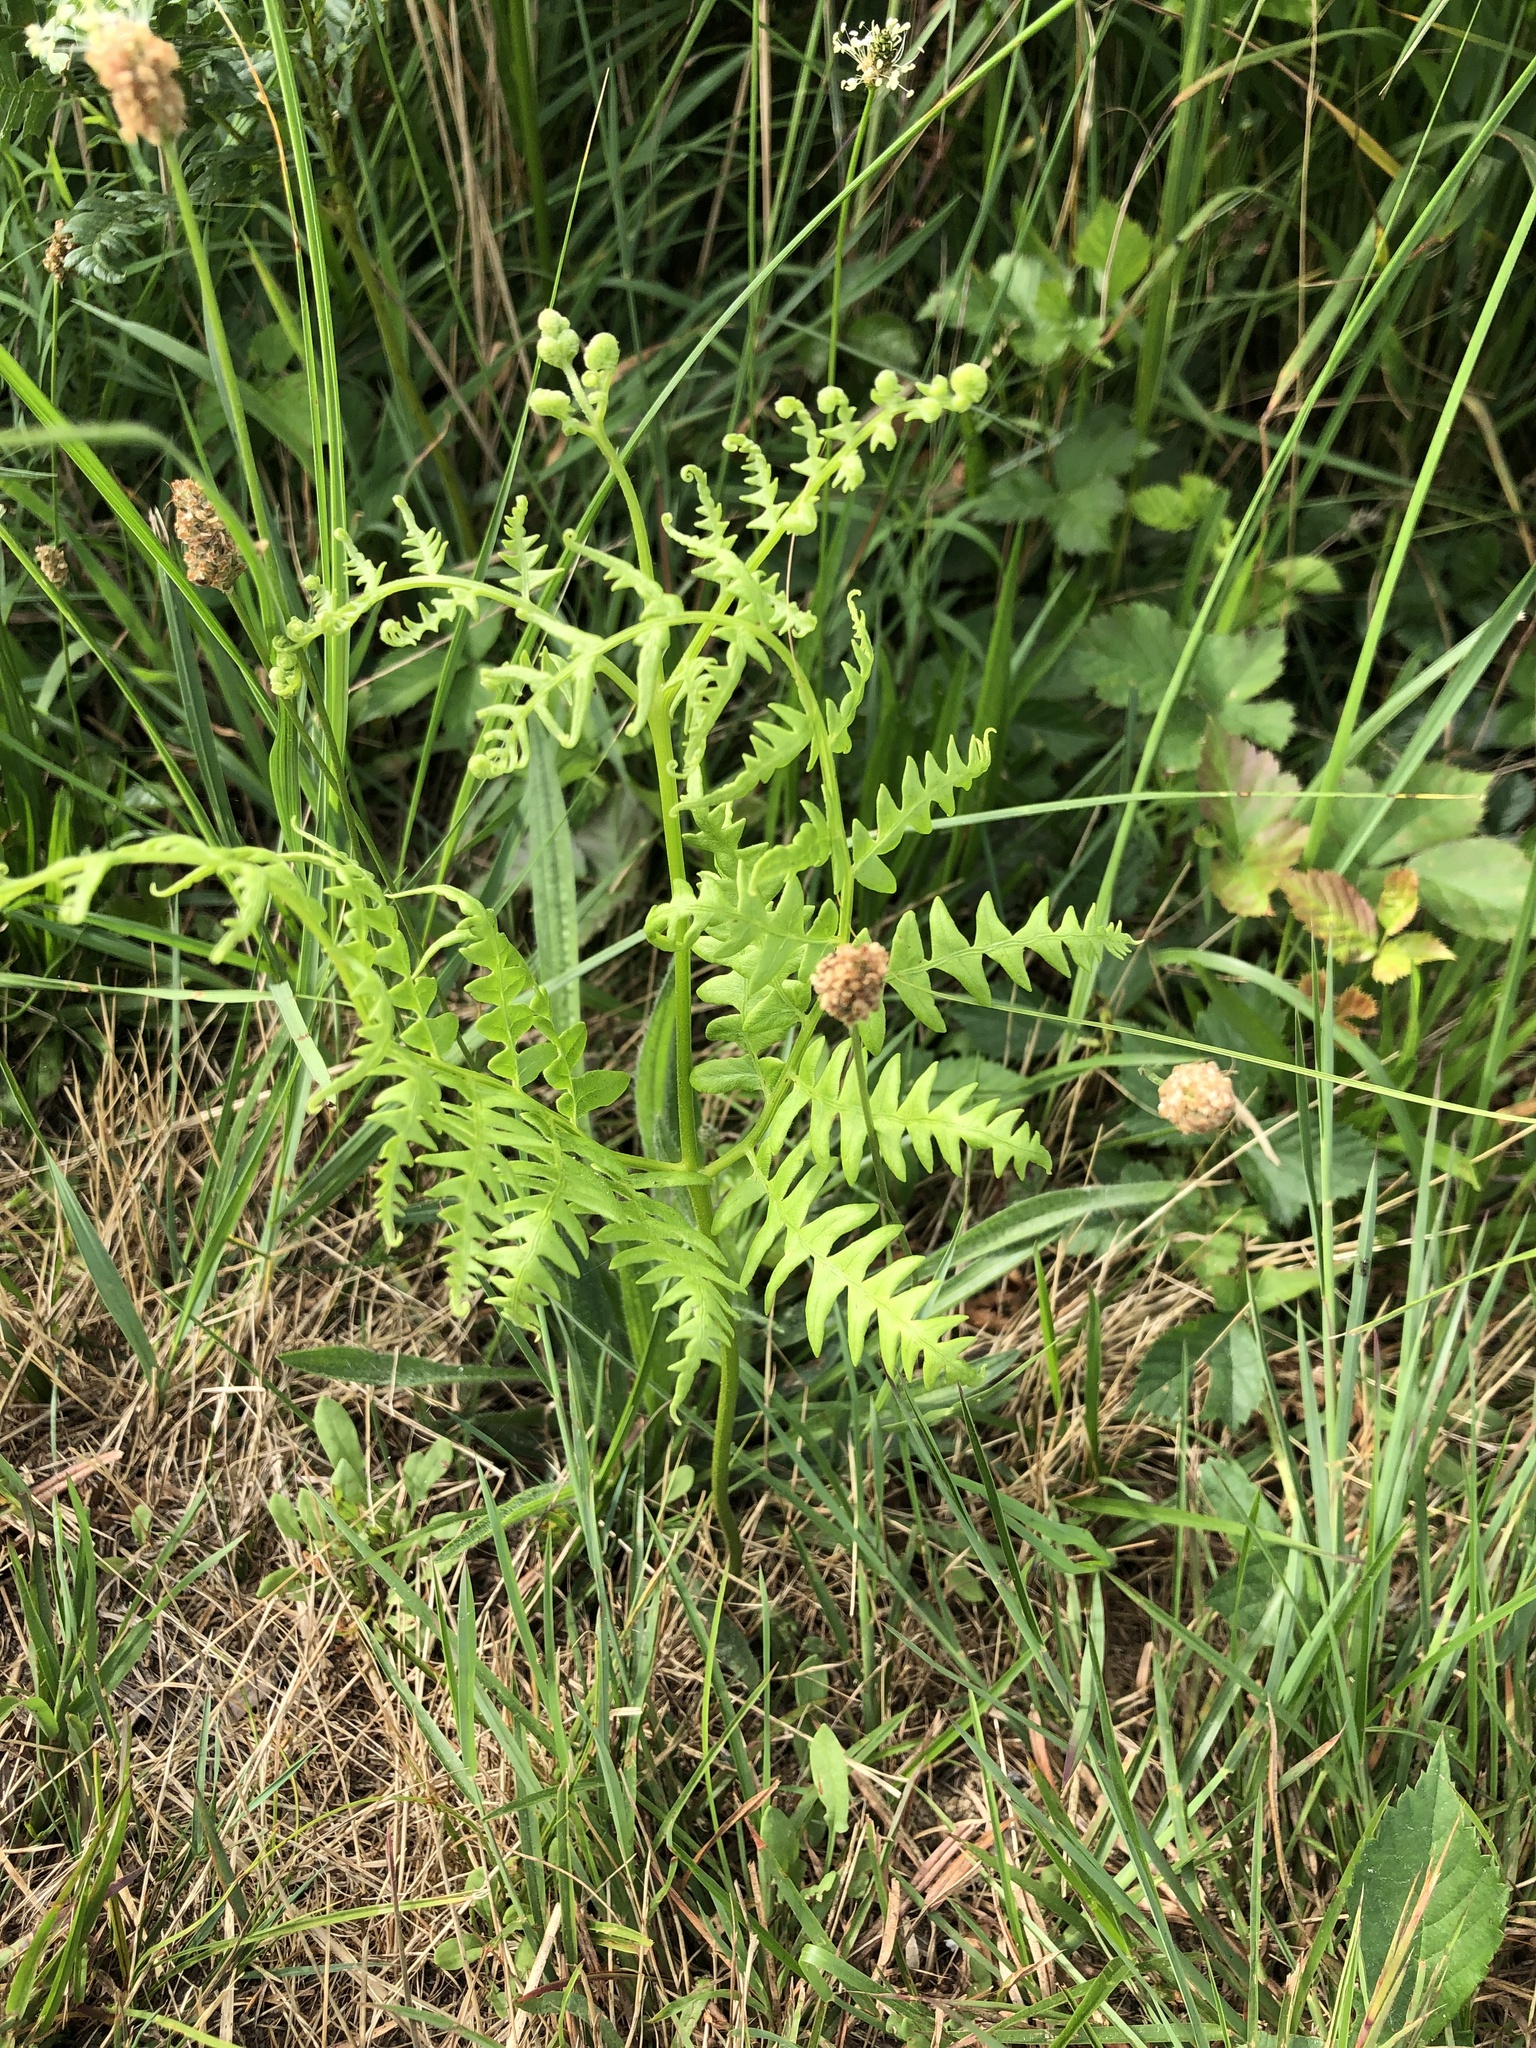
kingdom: Plantae
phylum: Tracheophyta
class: Polypodiopsida
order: Polypodiales
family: Dennstaedtiaceae
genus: Pteridium
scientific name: Pteridium aquilinum
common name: Bracken
